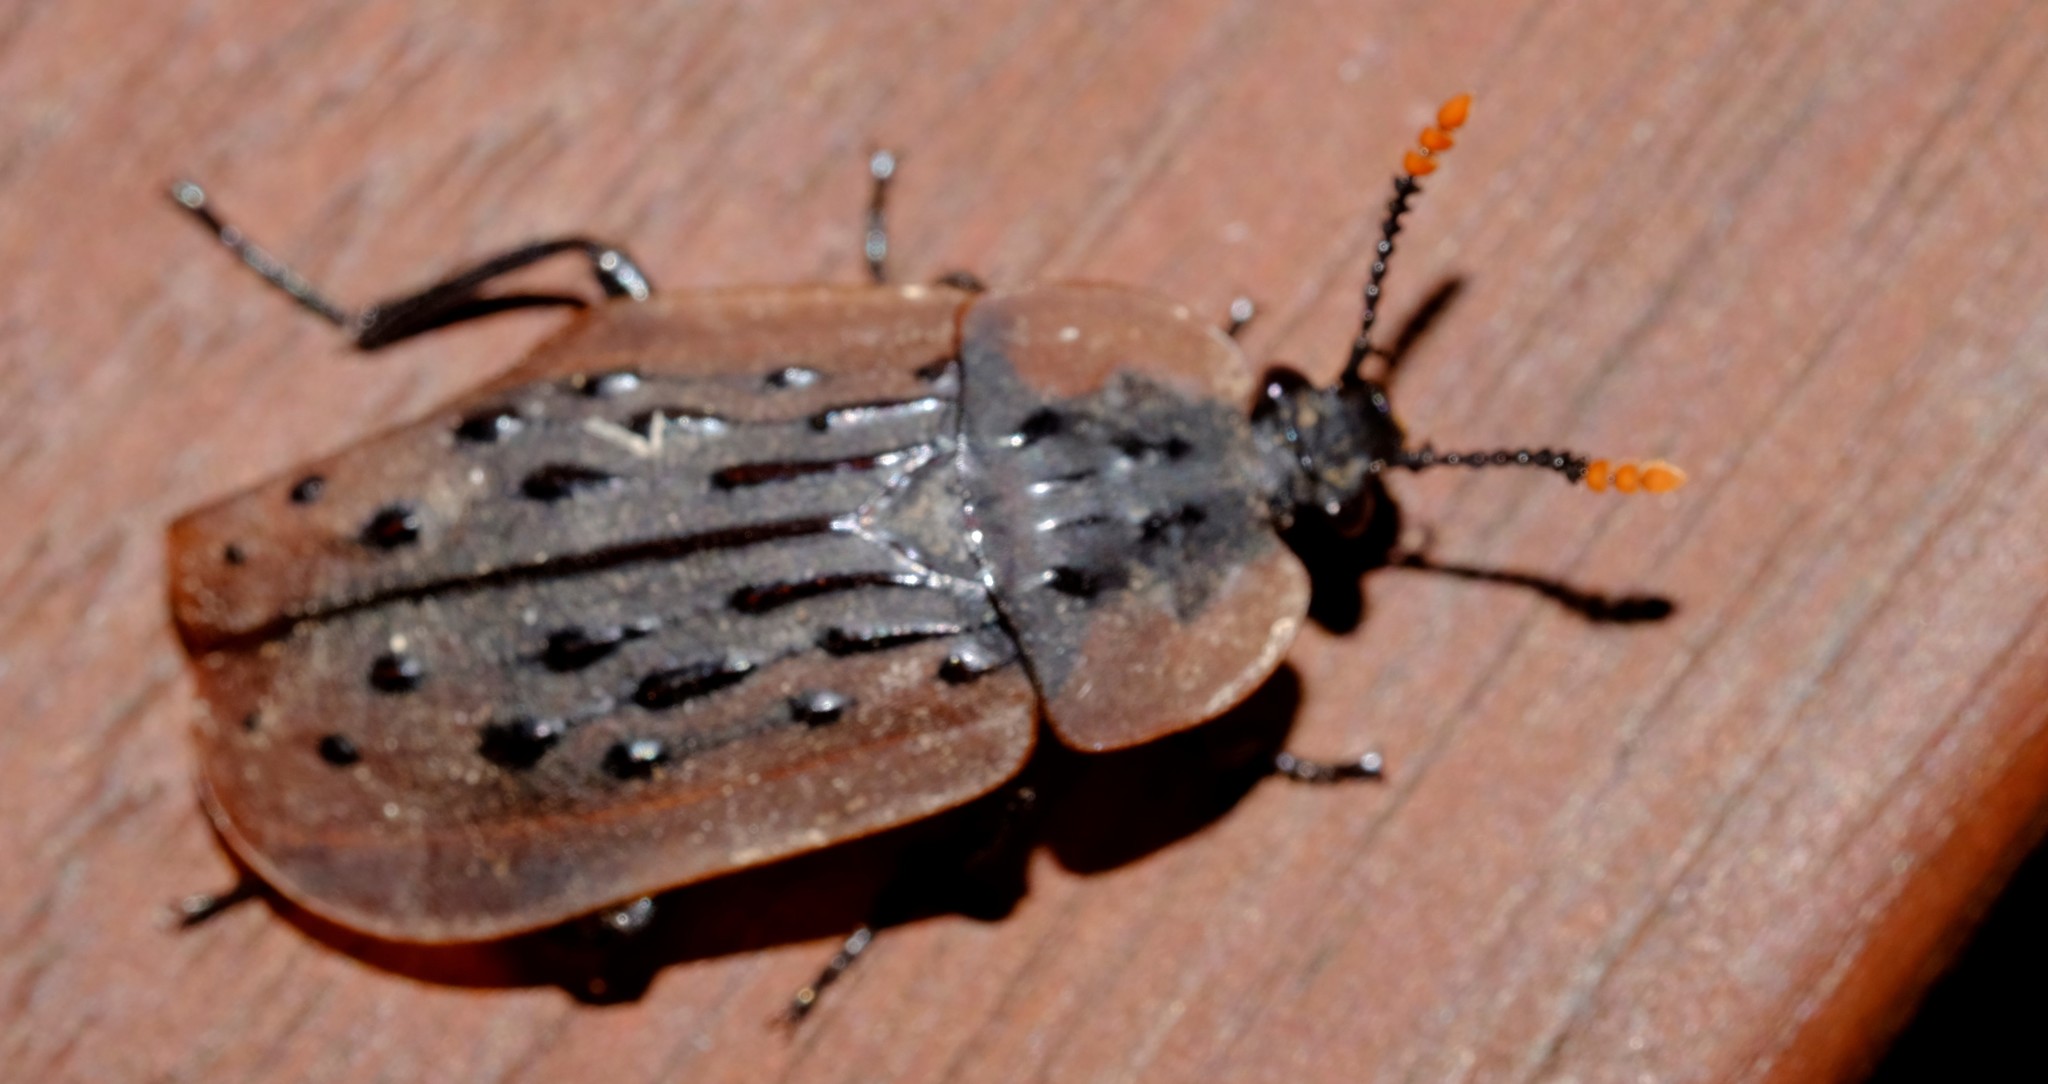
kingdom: Animalia
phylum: Arthropoda
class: Insecta
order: Coleoptera
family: Staphylinidae
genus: Ptomaphila
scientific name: Ptomaphila lacrymosa
